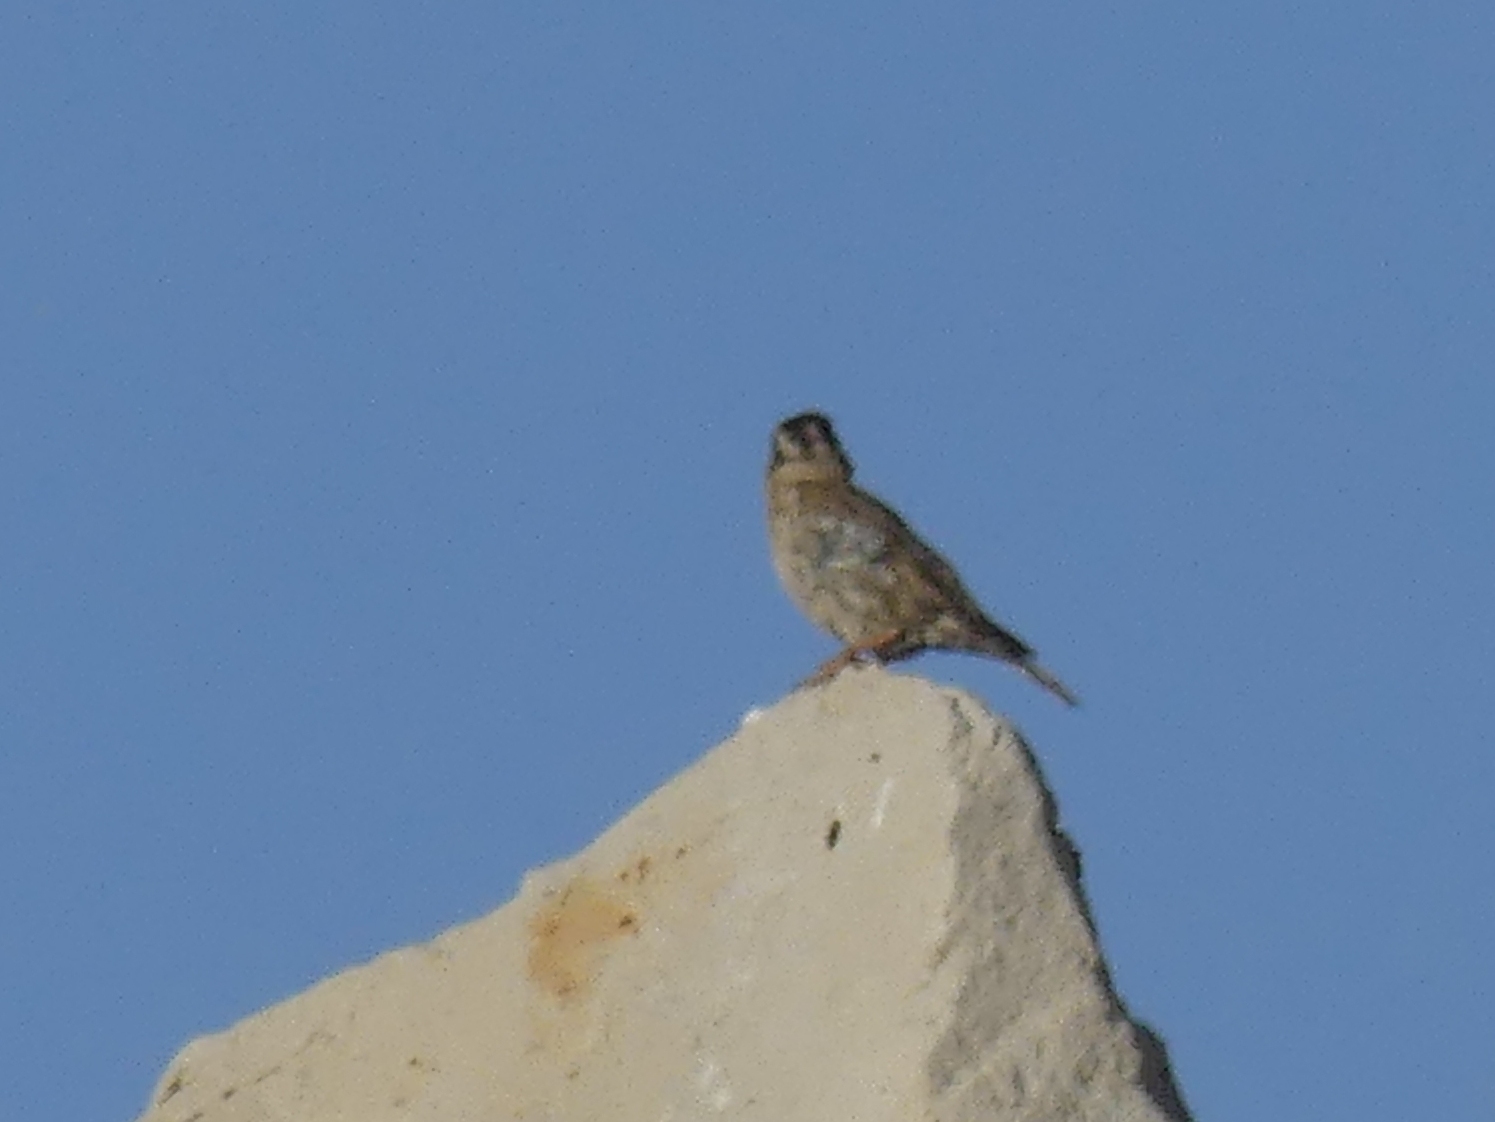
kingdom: Animalia
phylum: Chordata
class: Aves
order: Passeriformes
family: Passeridae
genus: Petronia
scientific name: Petronia petronia
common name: Rock sparrow
